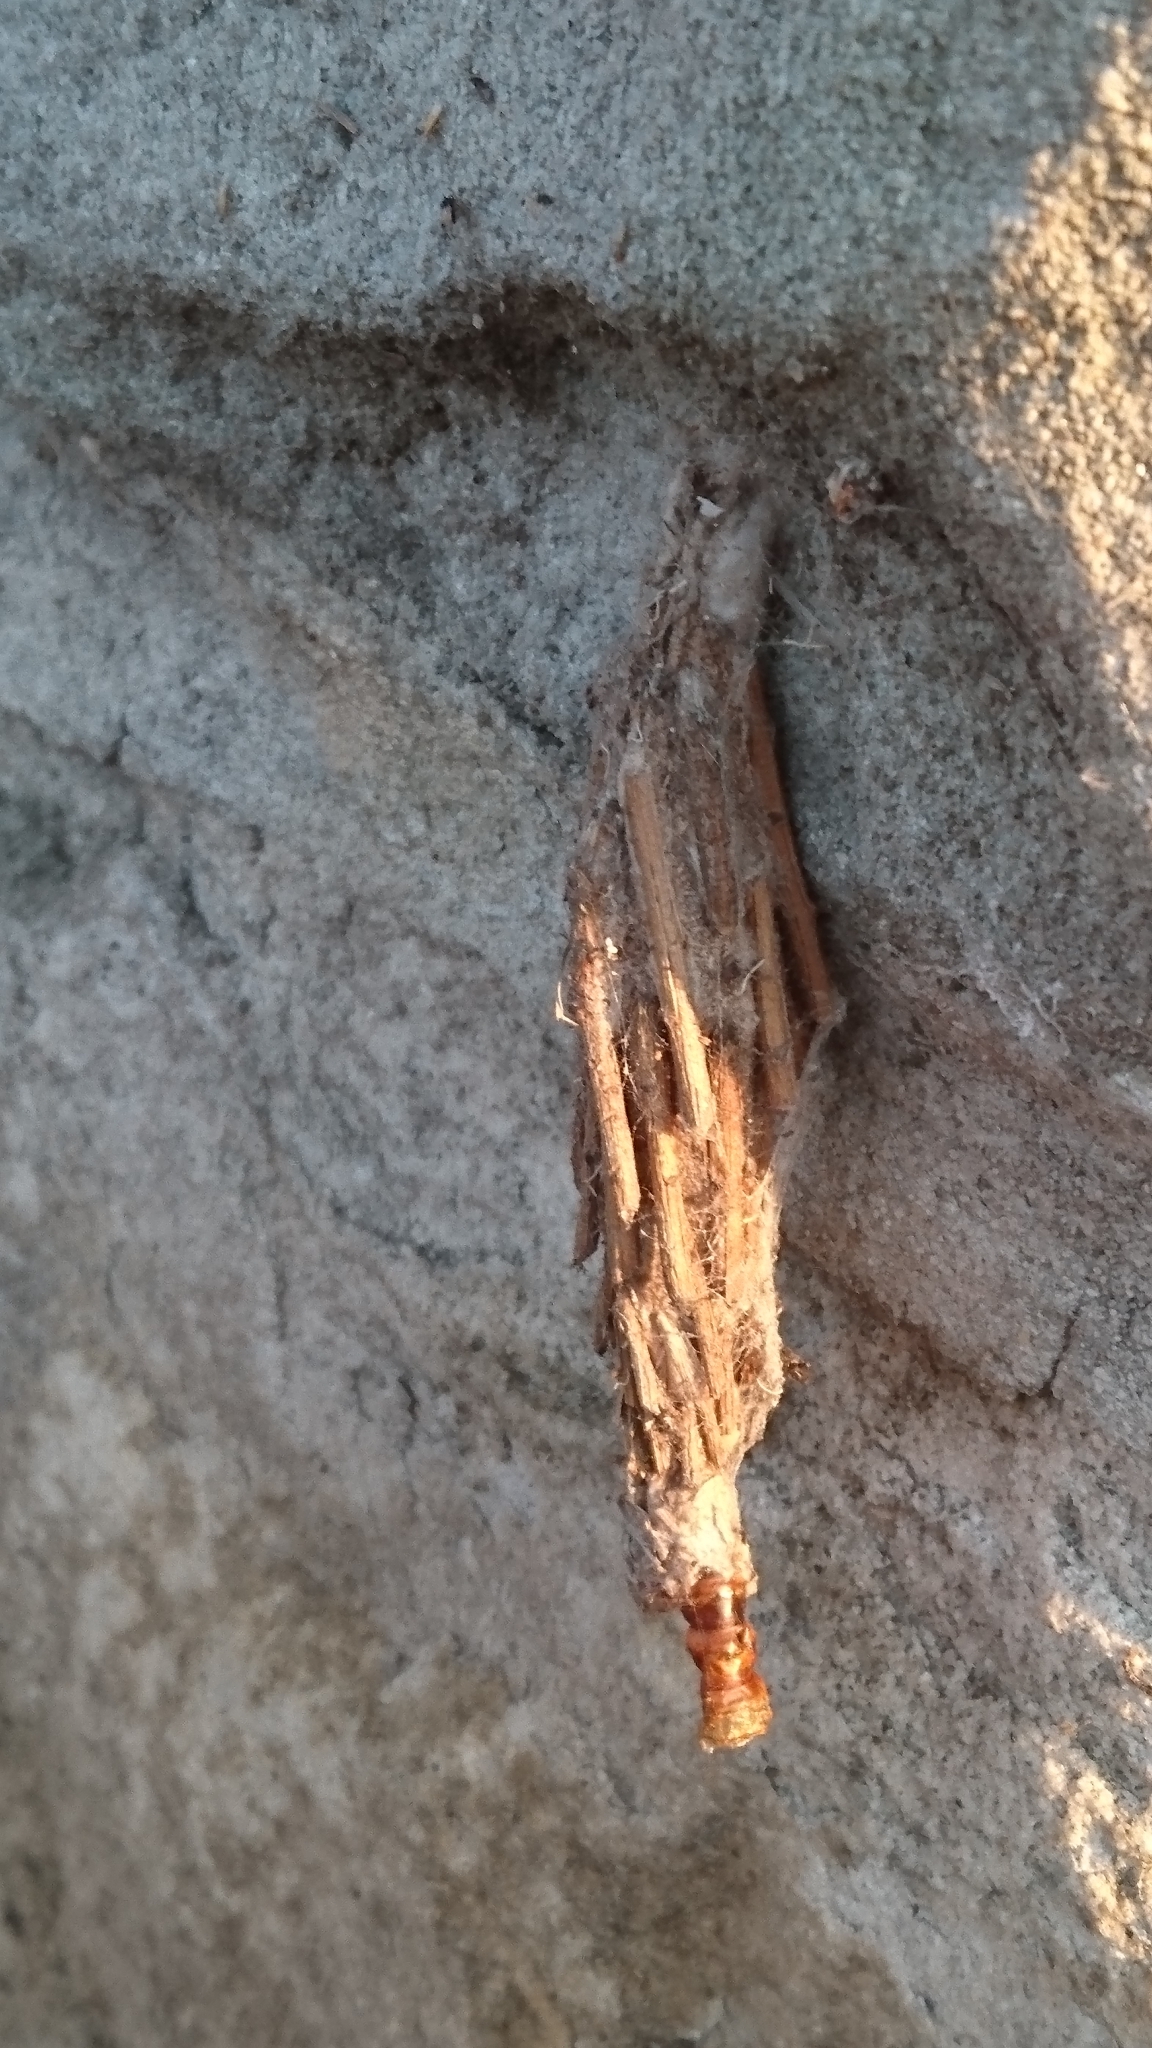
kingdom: Animalia
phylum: Arthropoda
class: Insecta
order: Lepidoptera
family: Psychidae
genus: Metura
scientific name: Metura elongatus
